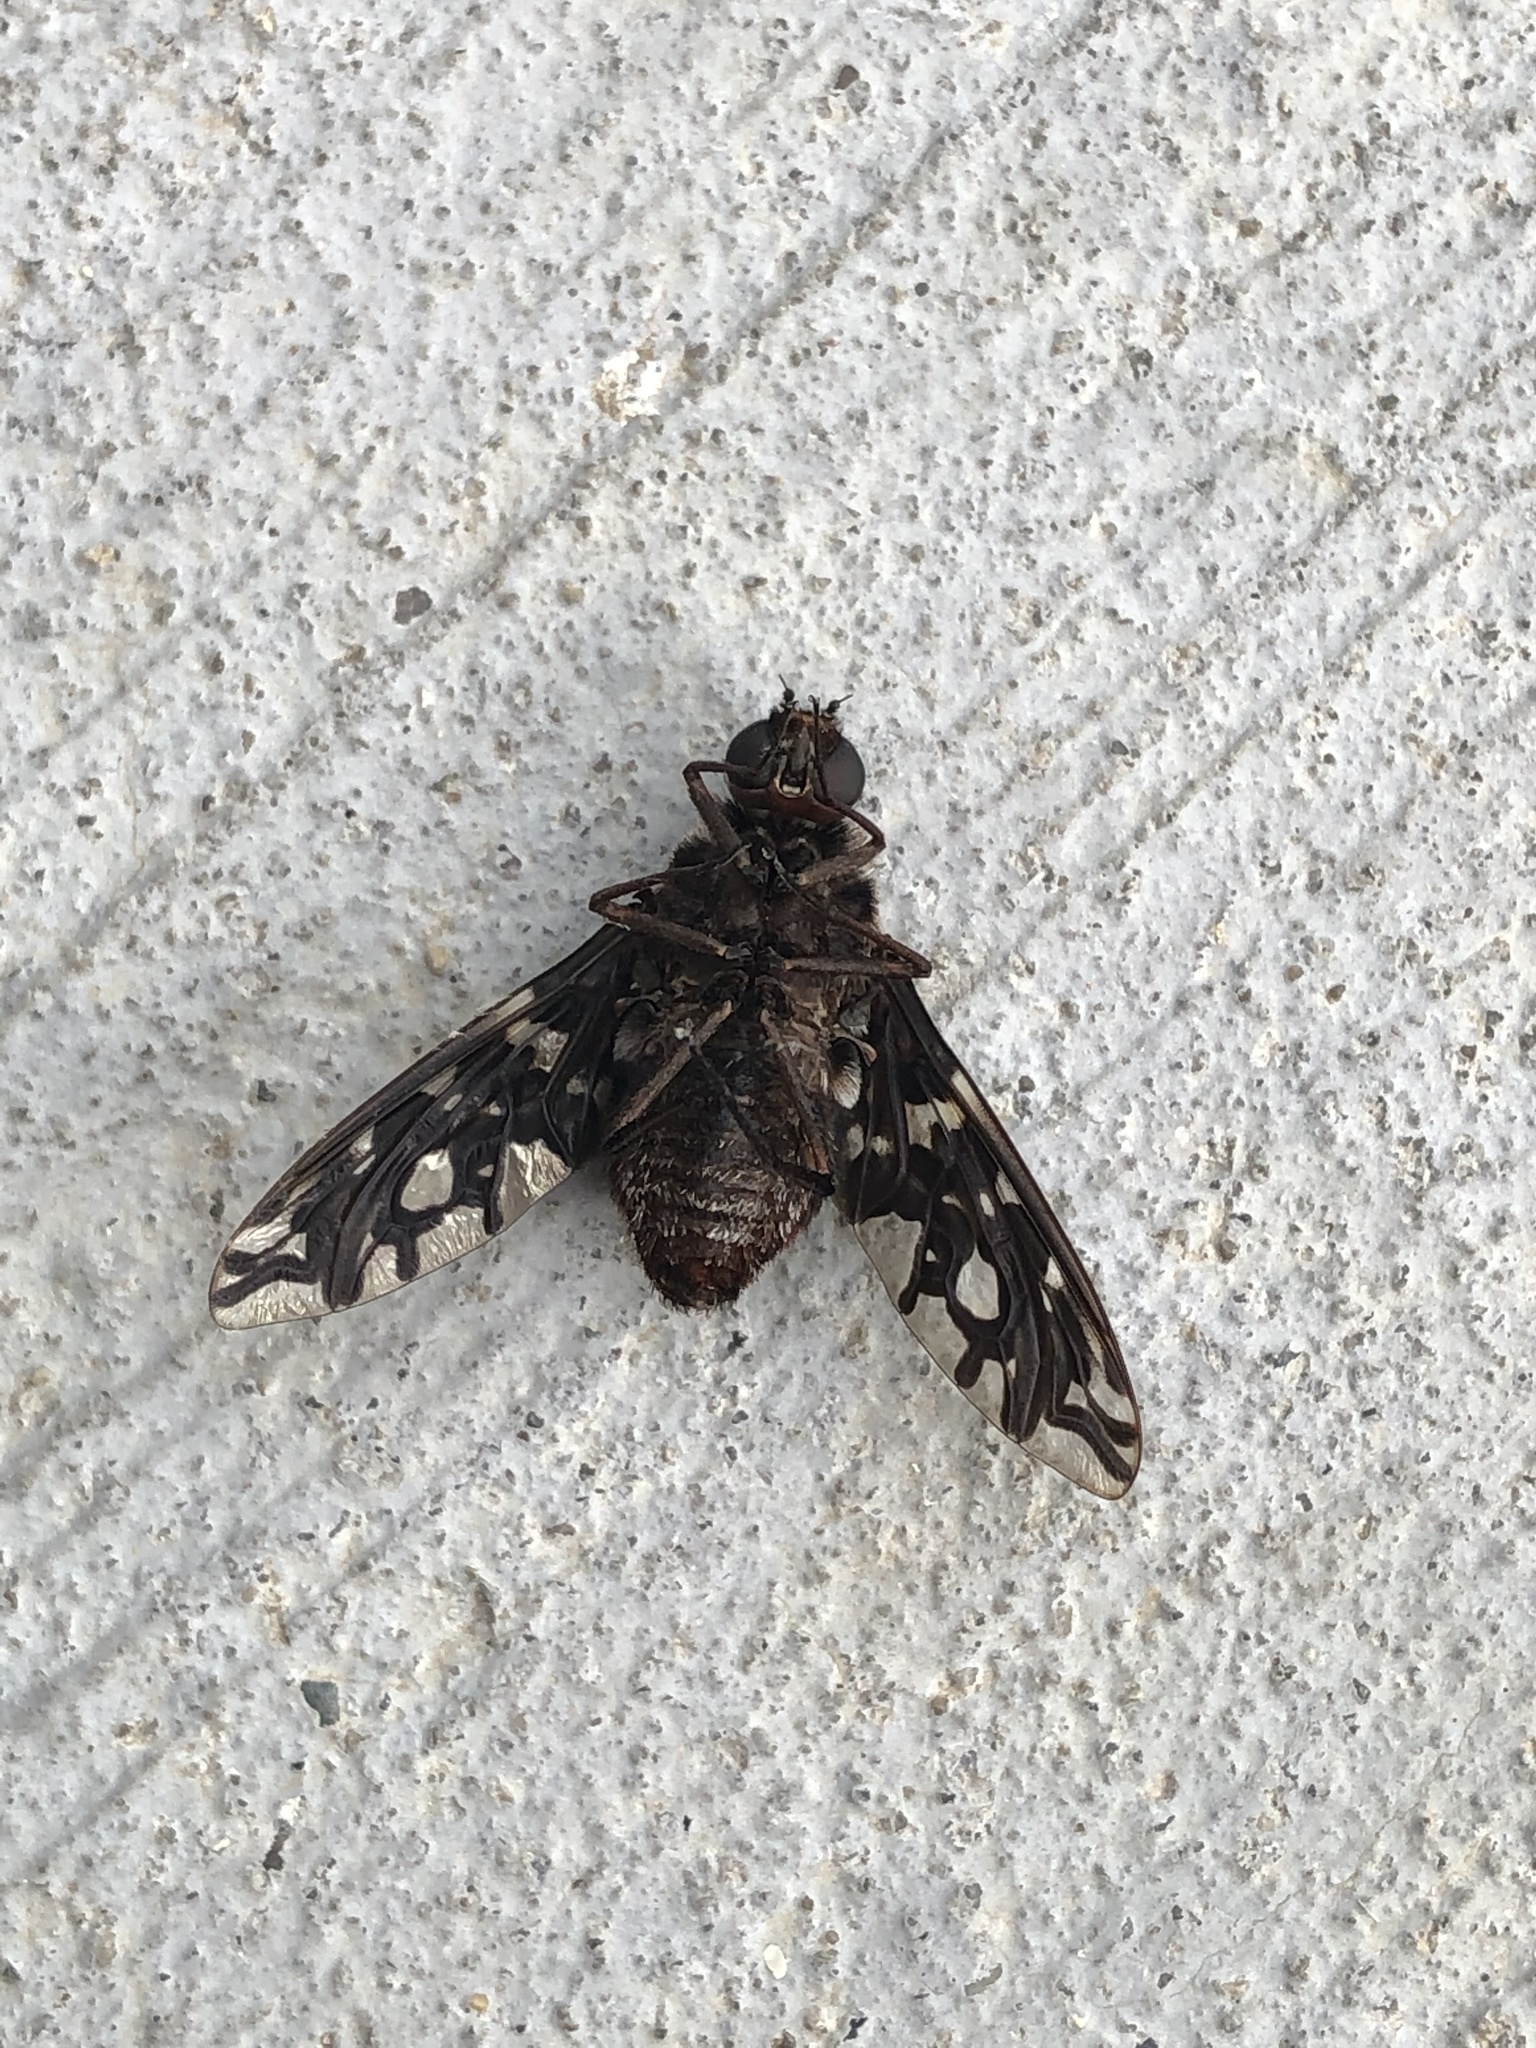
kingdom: Animalia
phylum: Arthropoda
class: Insecta
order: Diptera
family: Bombyliidae
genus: Xenox
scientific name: Xenox tigrinus
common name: Tiger bee fly
